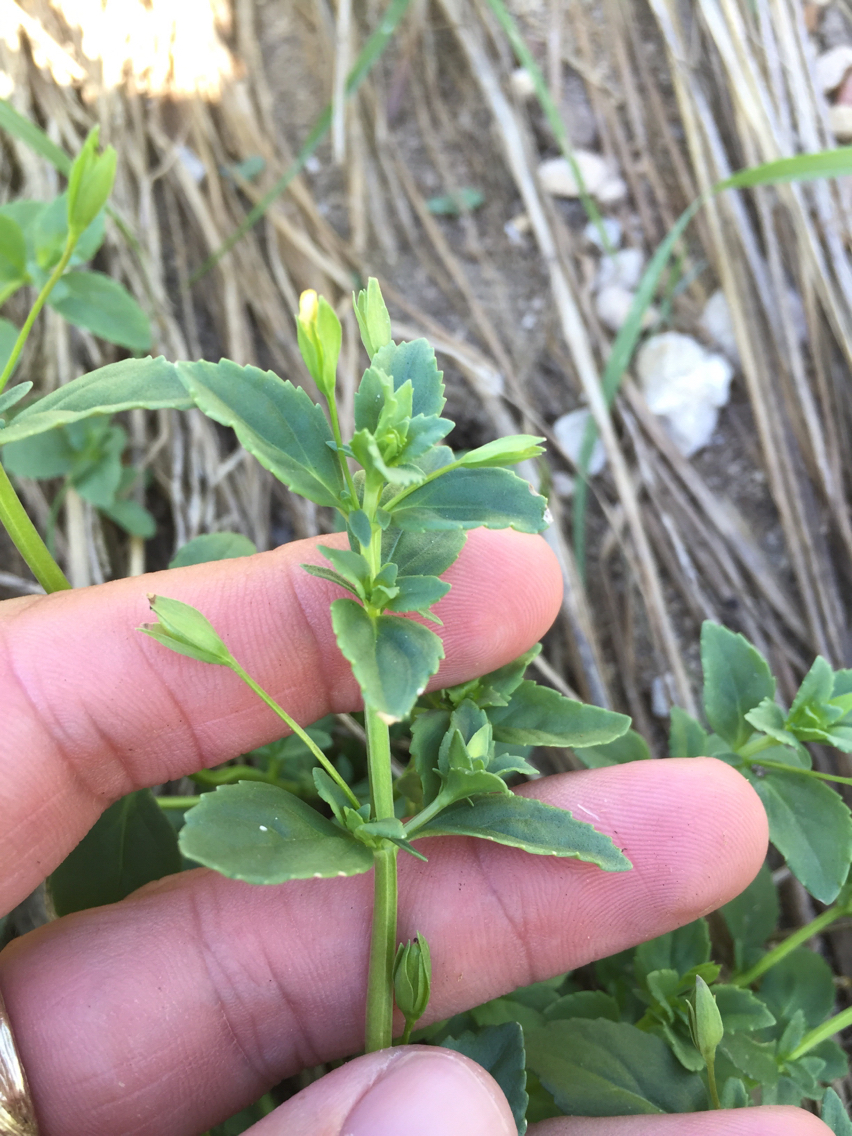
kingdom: Plantae
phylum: Tracheophyta
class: Magnoliopsida
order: Lamiales
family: Plantaginaceae
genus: Mecardonia
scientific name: Mecardonia procumbens
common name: Baby jump-up
